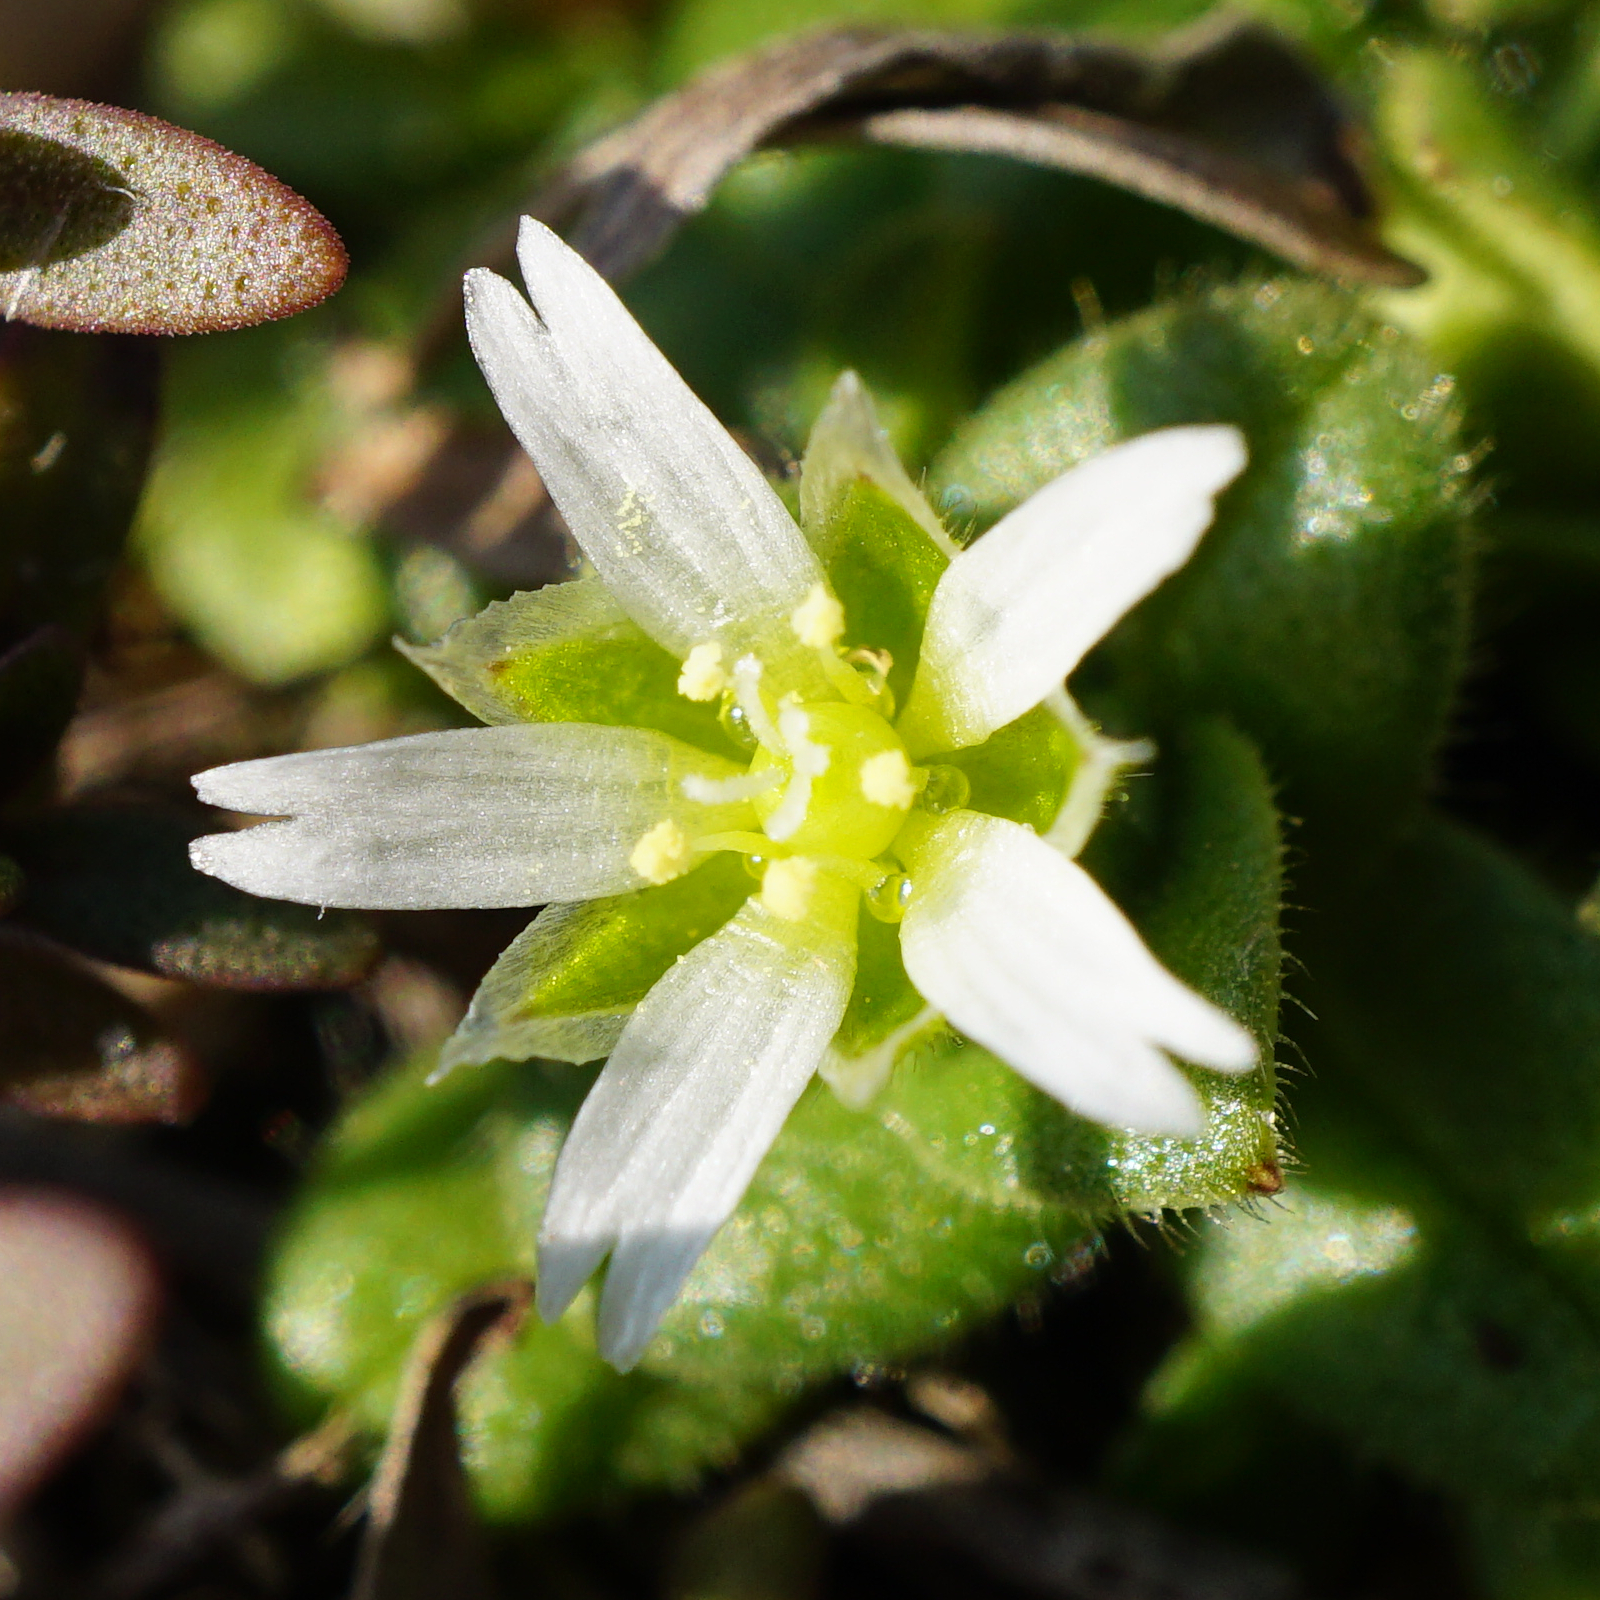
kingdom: Plantae
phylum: Tracheophyta
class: Magnoliopsida
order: Caryophyllales
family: Caryophyllaceae
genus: Cerastium
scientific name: Cerastium semidecandrum
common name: Little mouse-ear
